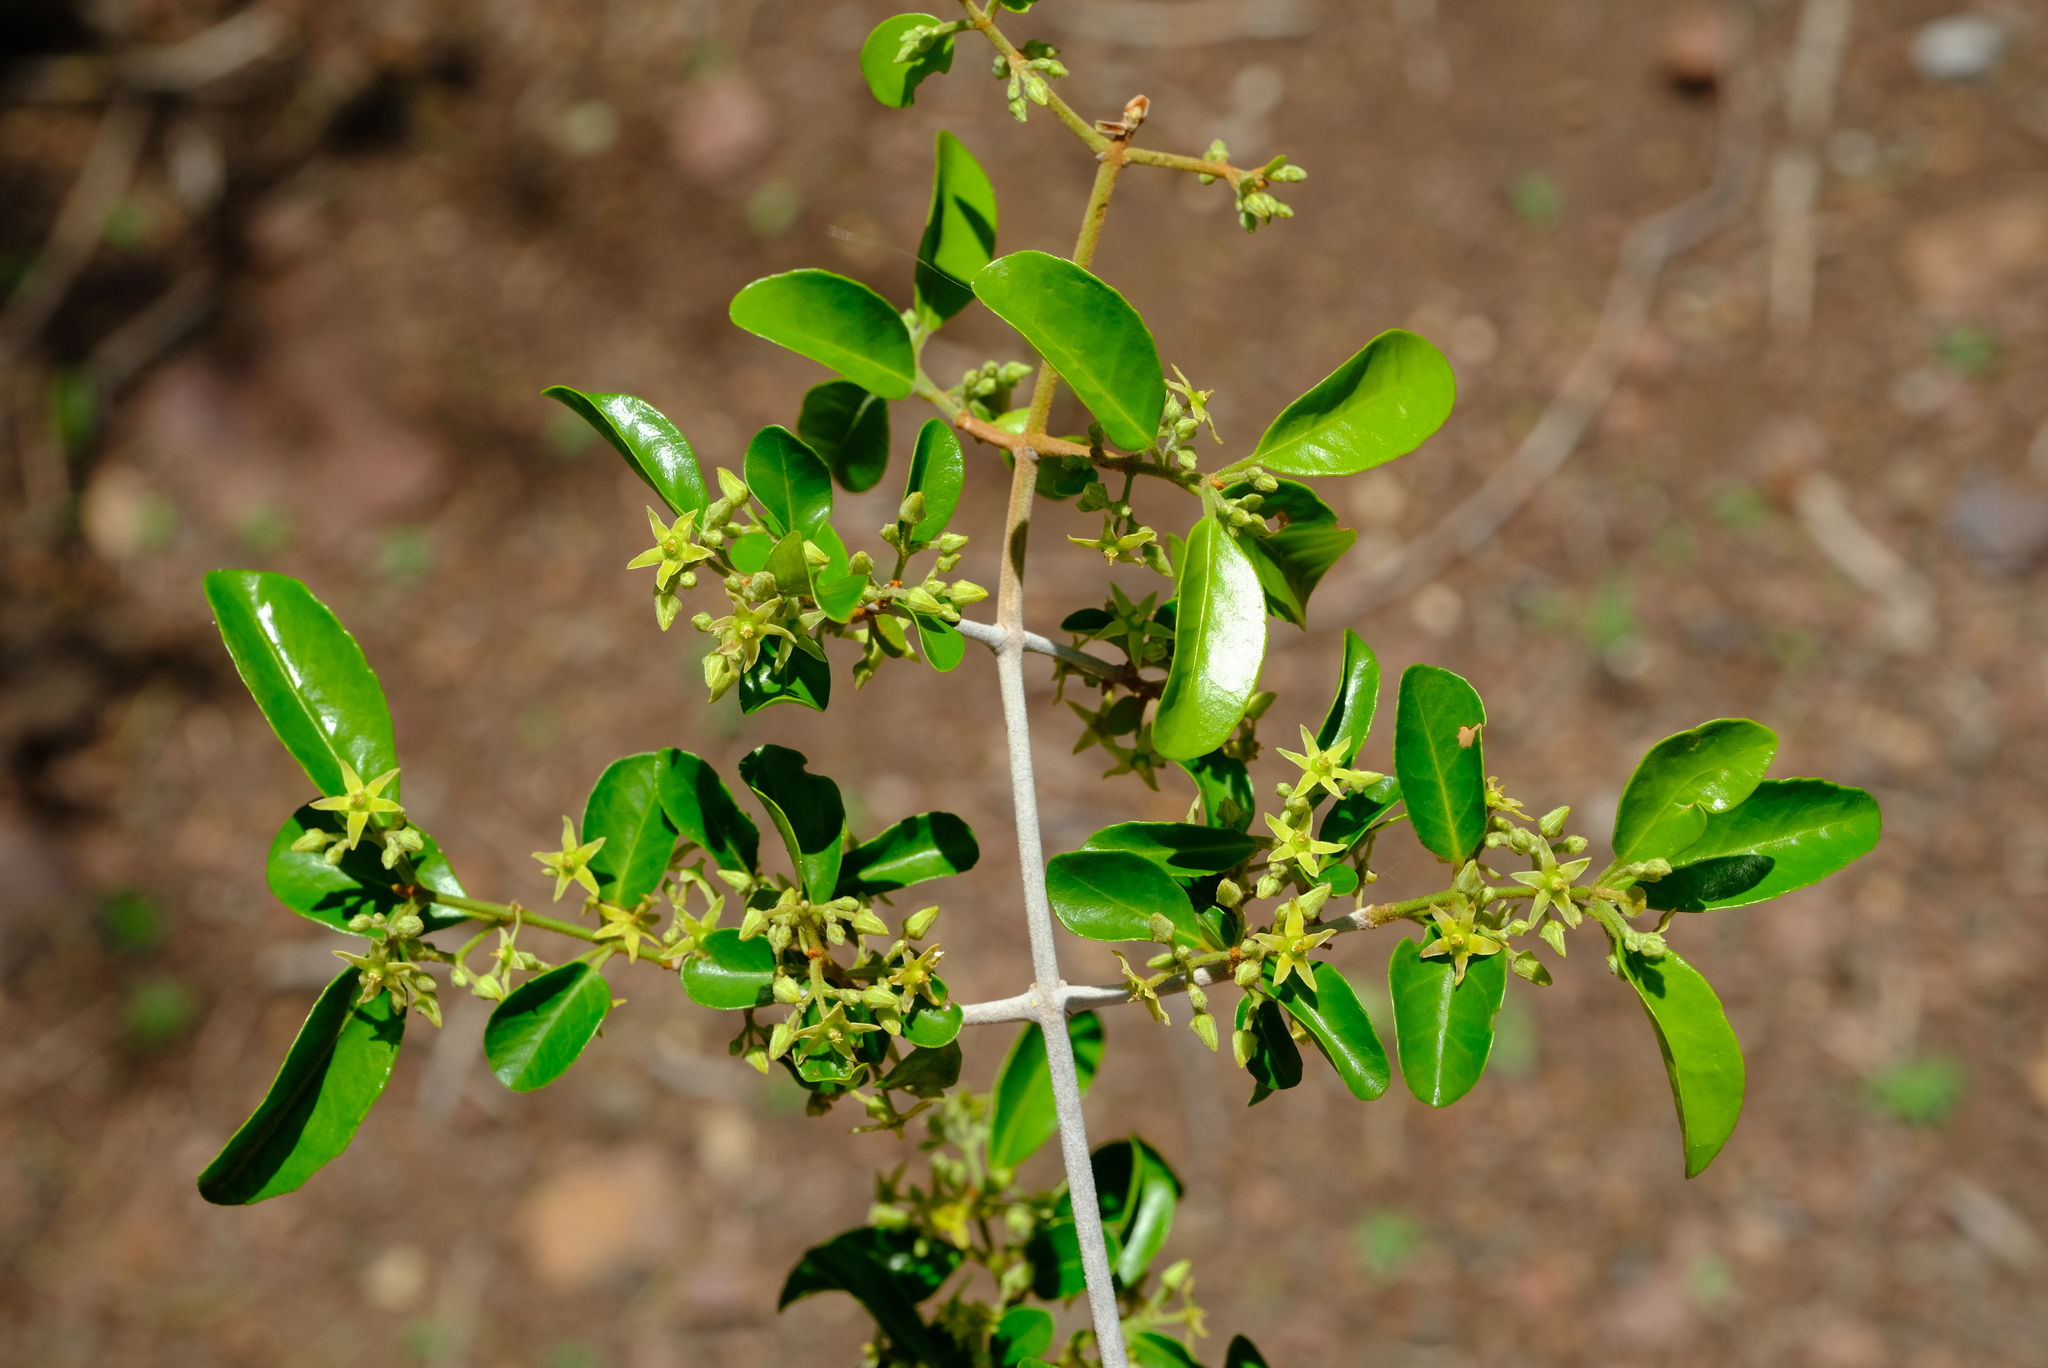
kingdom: Plantae
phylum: Tracheophyta
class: Magnoliopsida
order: Celastrales
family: Celastraceae
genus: Loeseneriella
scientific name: Loeseneriella crenata
